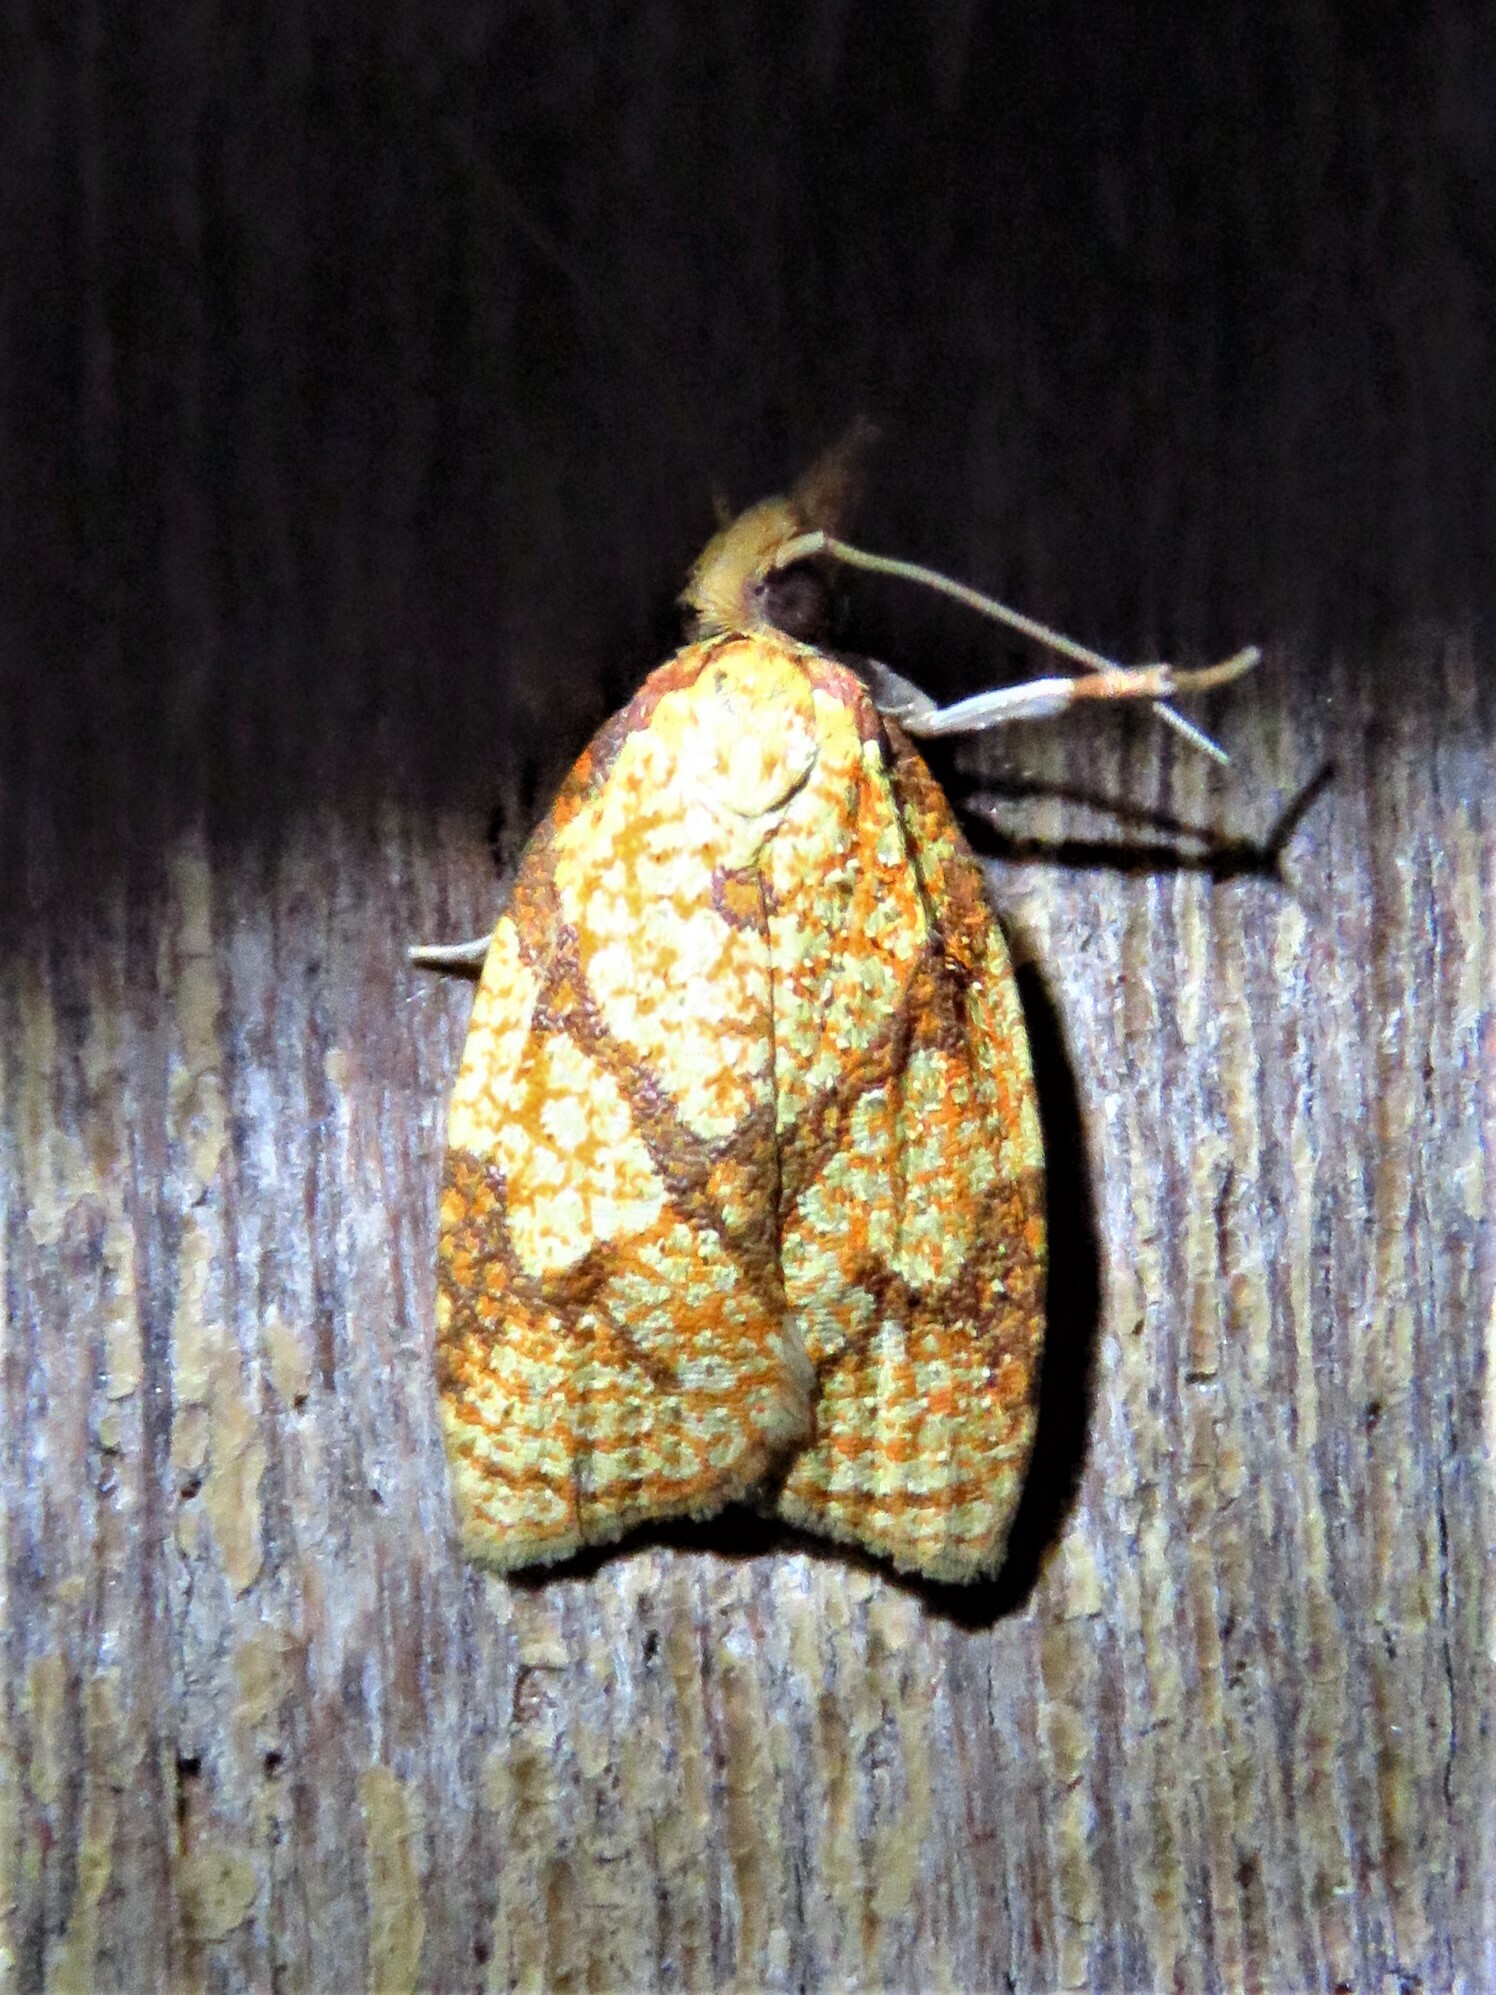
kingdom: Animalia
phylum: Arthropoda
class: Insecta
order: Lepidoptera
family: Tortricidae
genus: Cenopis
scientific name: Cenopis reticulatana
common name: Reticulated fruitworm moth
